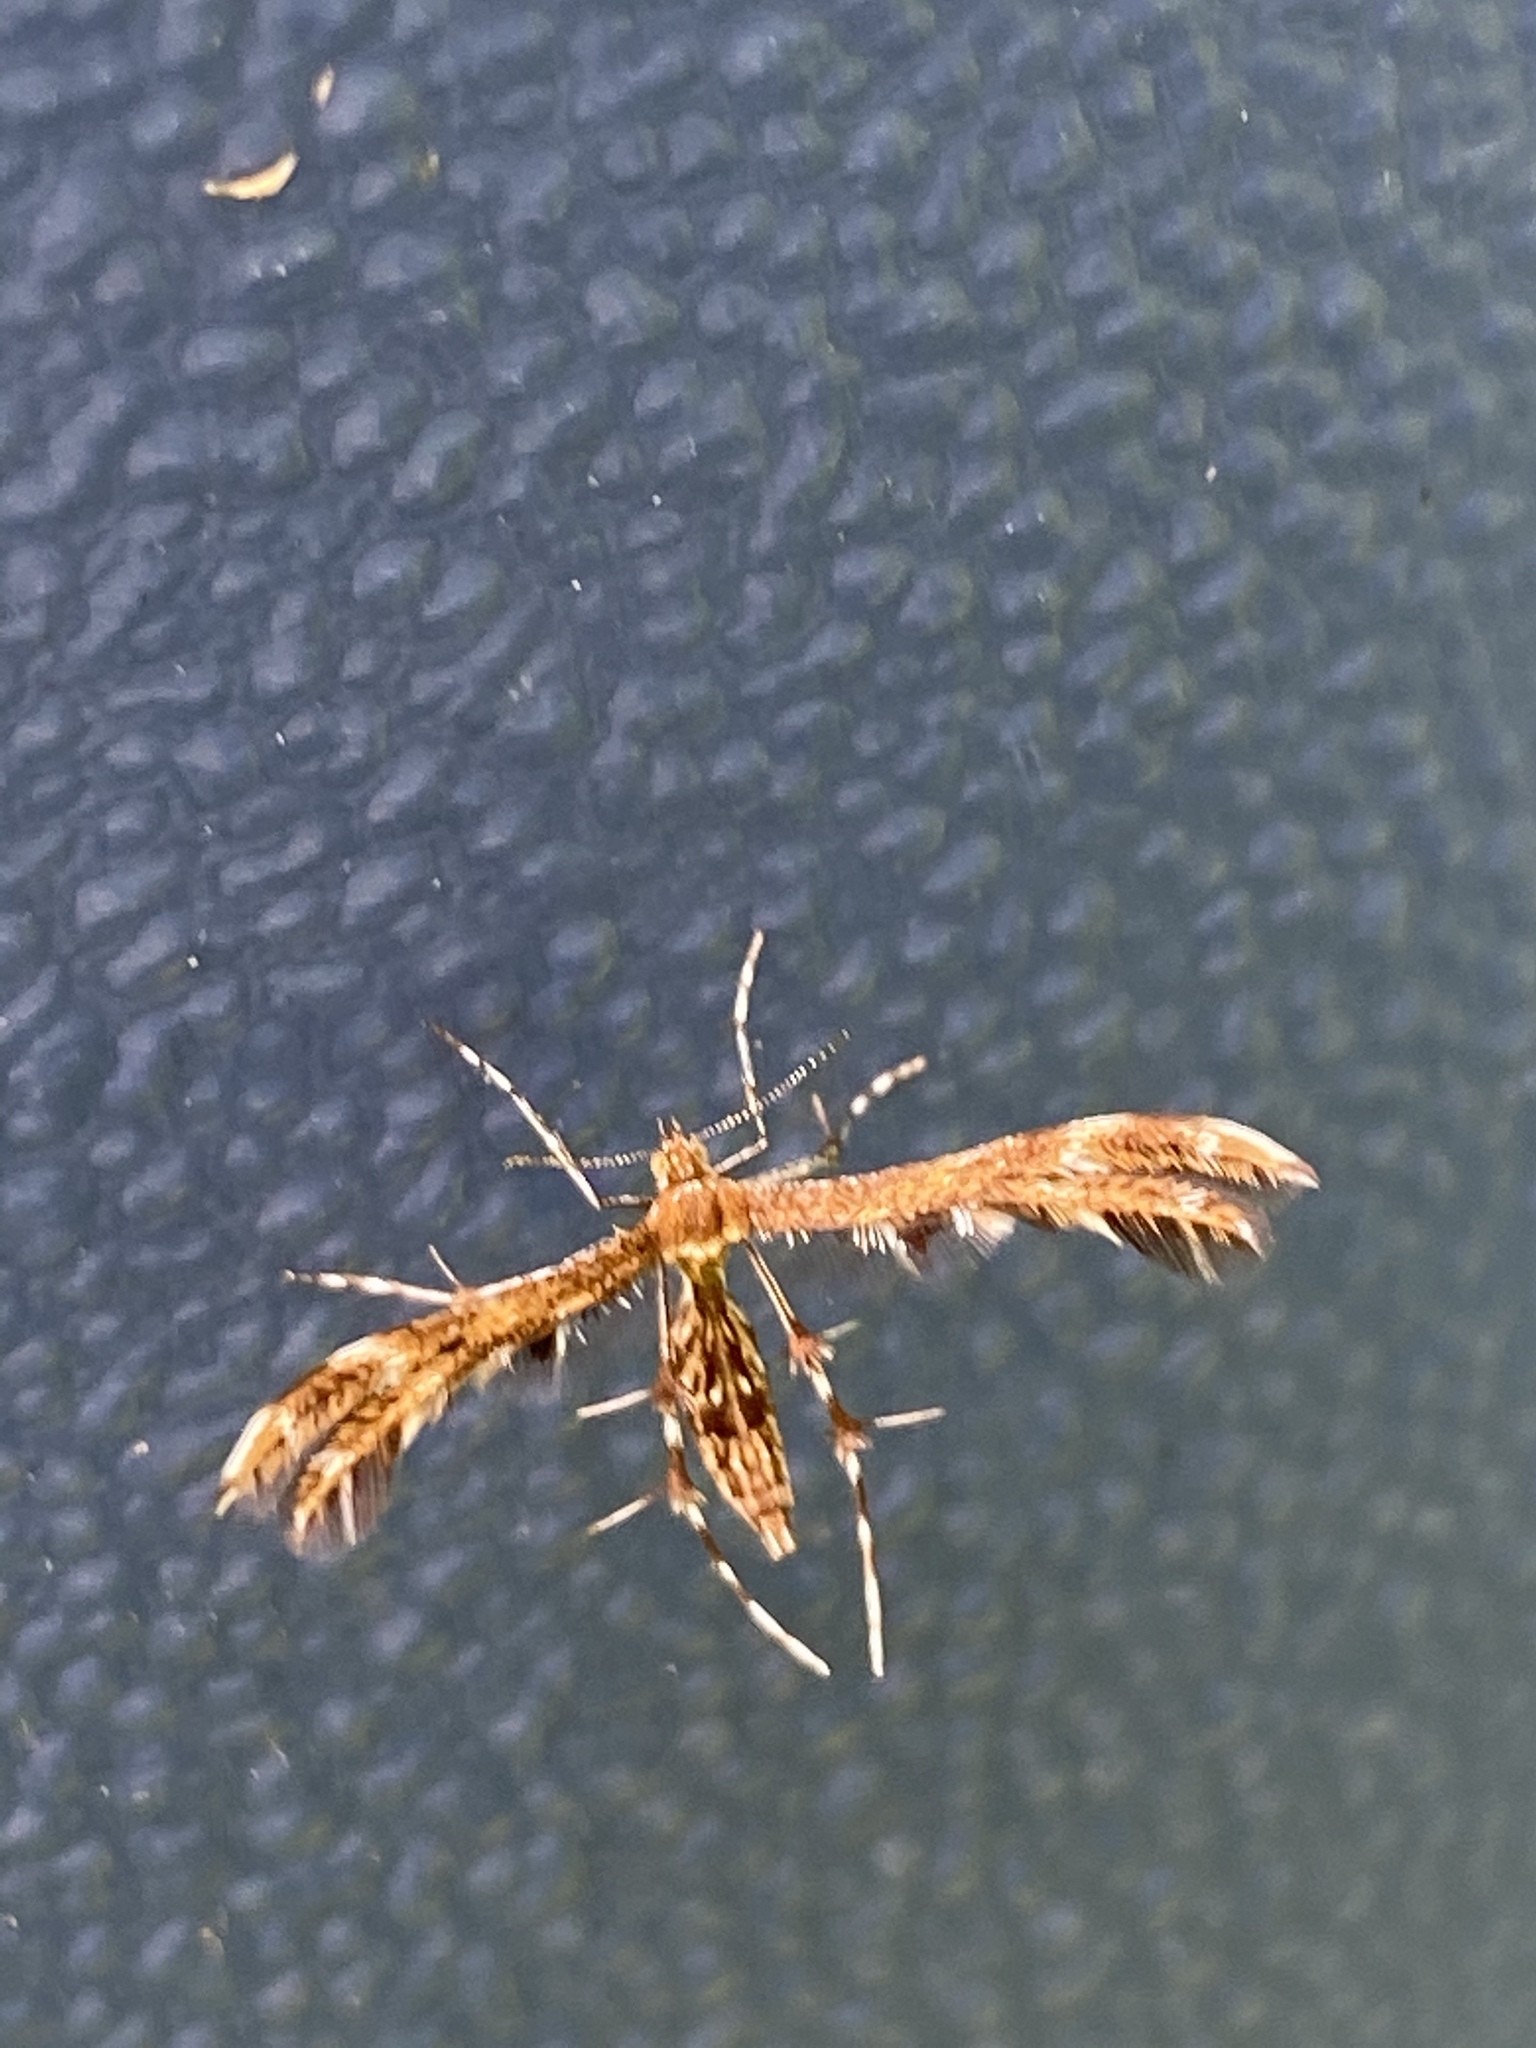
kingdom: Animalia
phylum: Arthropoda
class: Insecta
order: Lepidoptera
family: Pterophoridae
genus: Dejongia
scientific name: Dejongia lobidactylus
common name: Lobed plume moth
